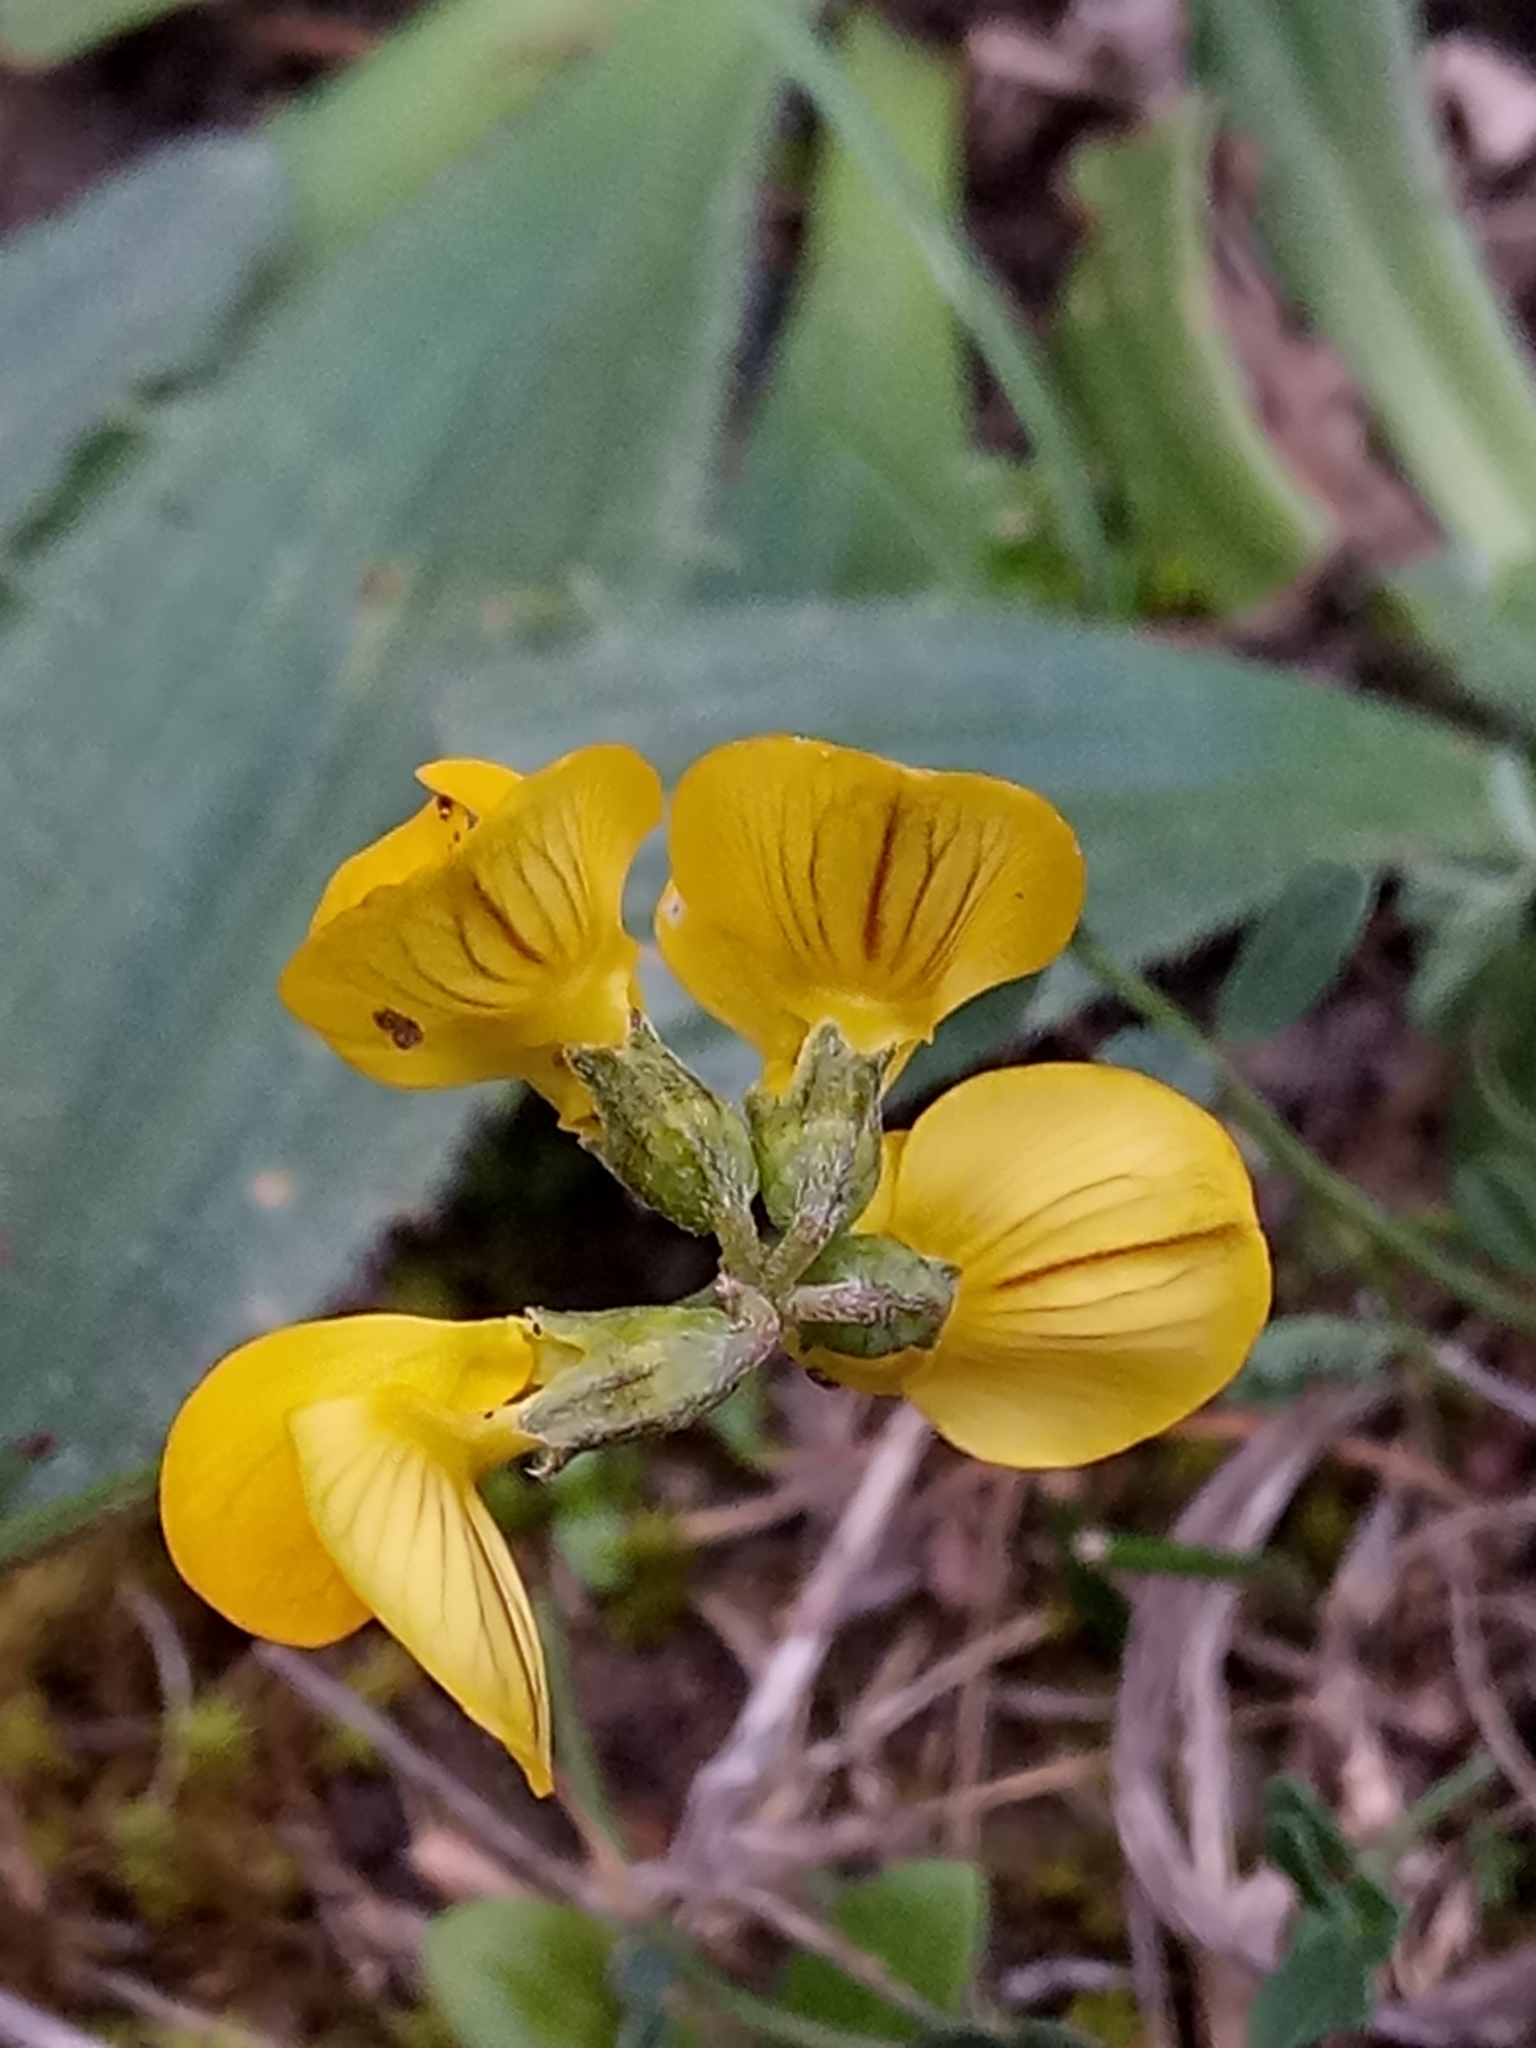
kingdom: Plantae
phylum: Tracheophyta
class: Magnoliopsida
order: Fabales
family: Fabaceae
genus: Hippocrepis
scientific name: Hippocrepis atlantica
